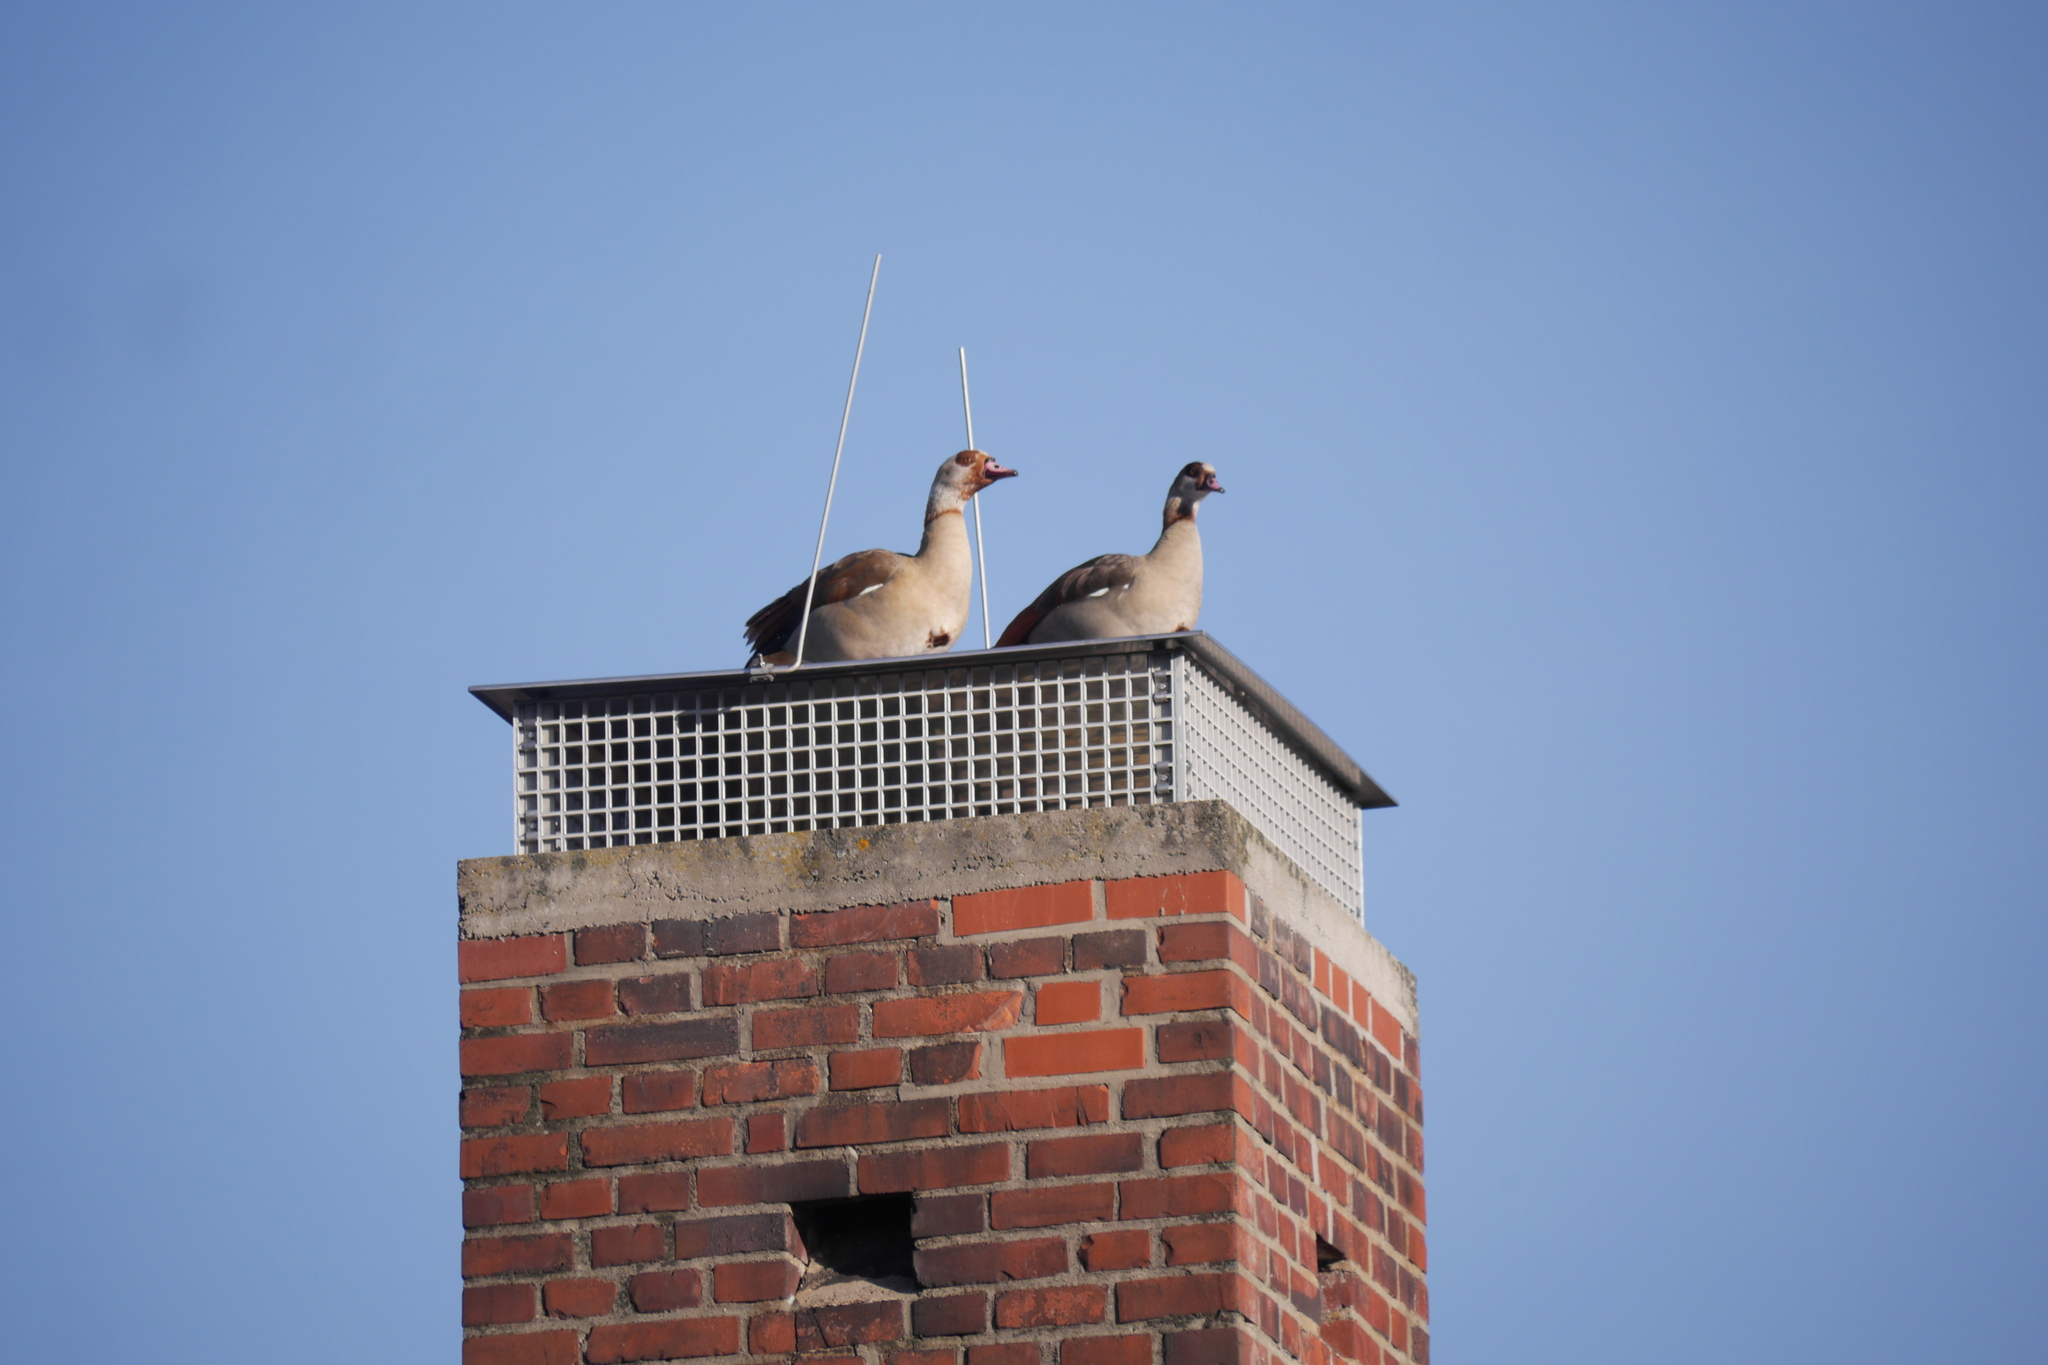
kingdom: Animalia
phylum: Chordata
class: Aves
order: Anseriformes
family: Anatidae
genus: Alopochen
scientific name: Alopochen aegyptiaca
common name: Egyptian goose
